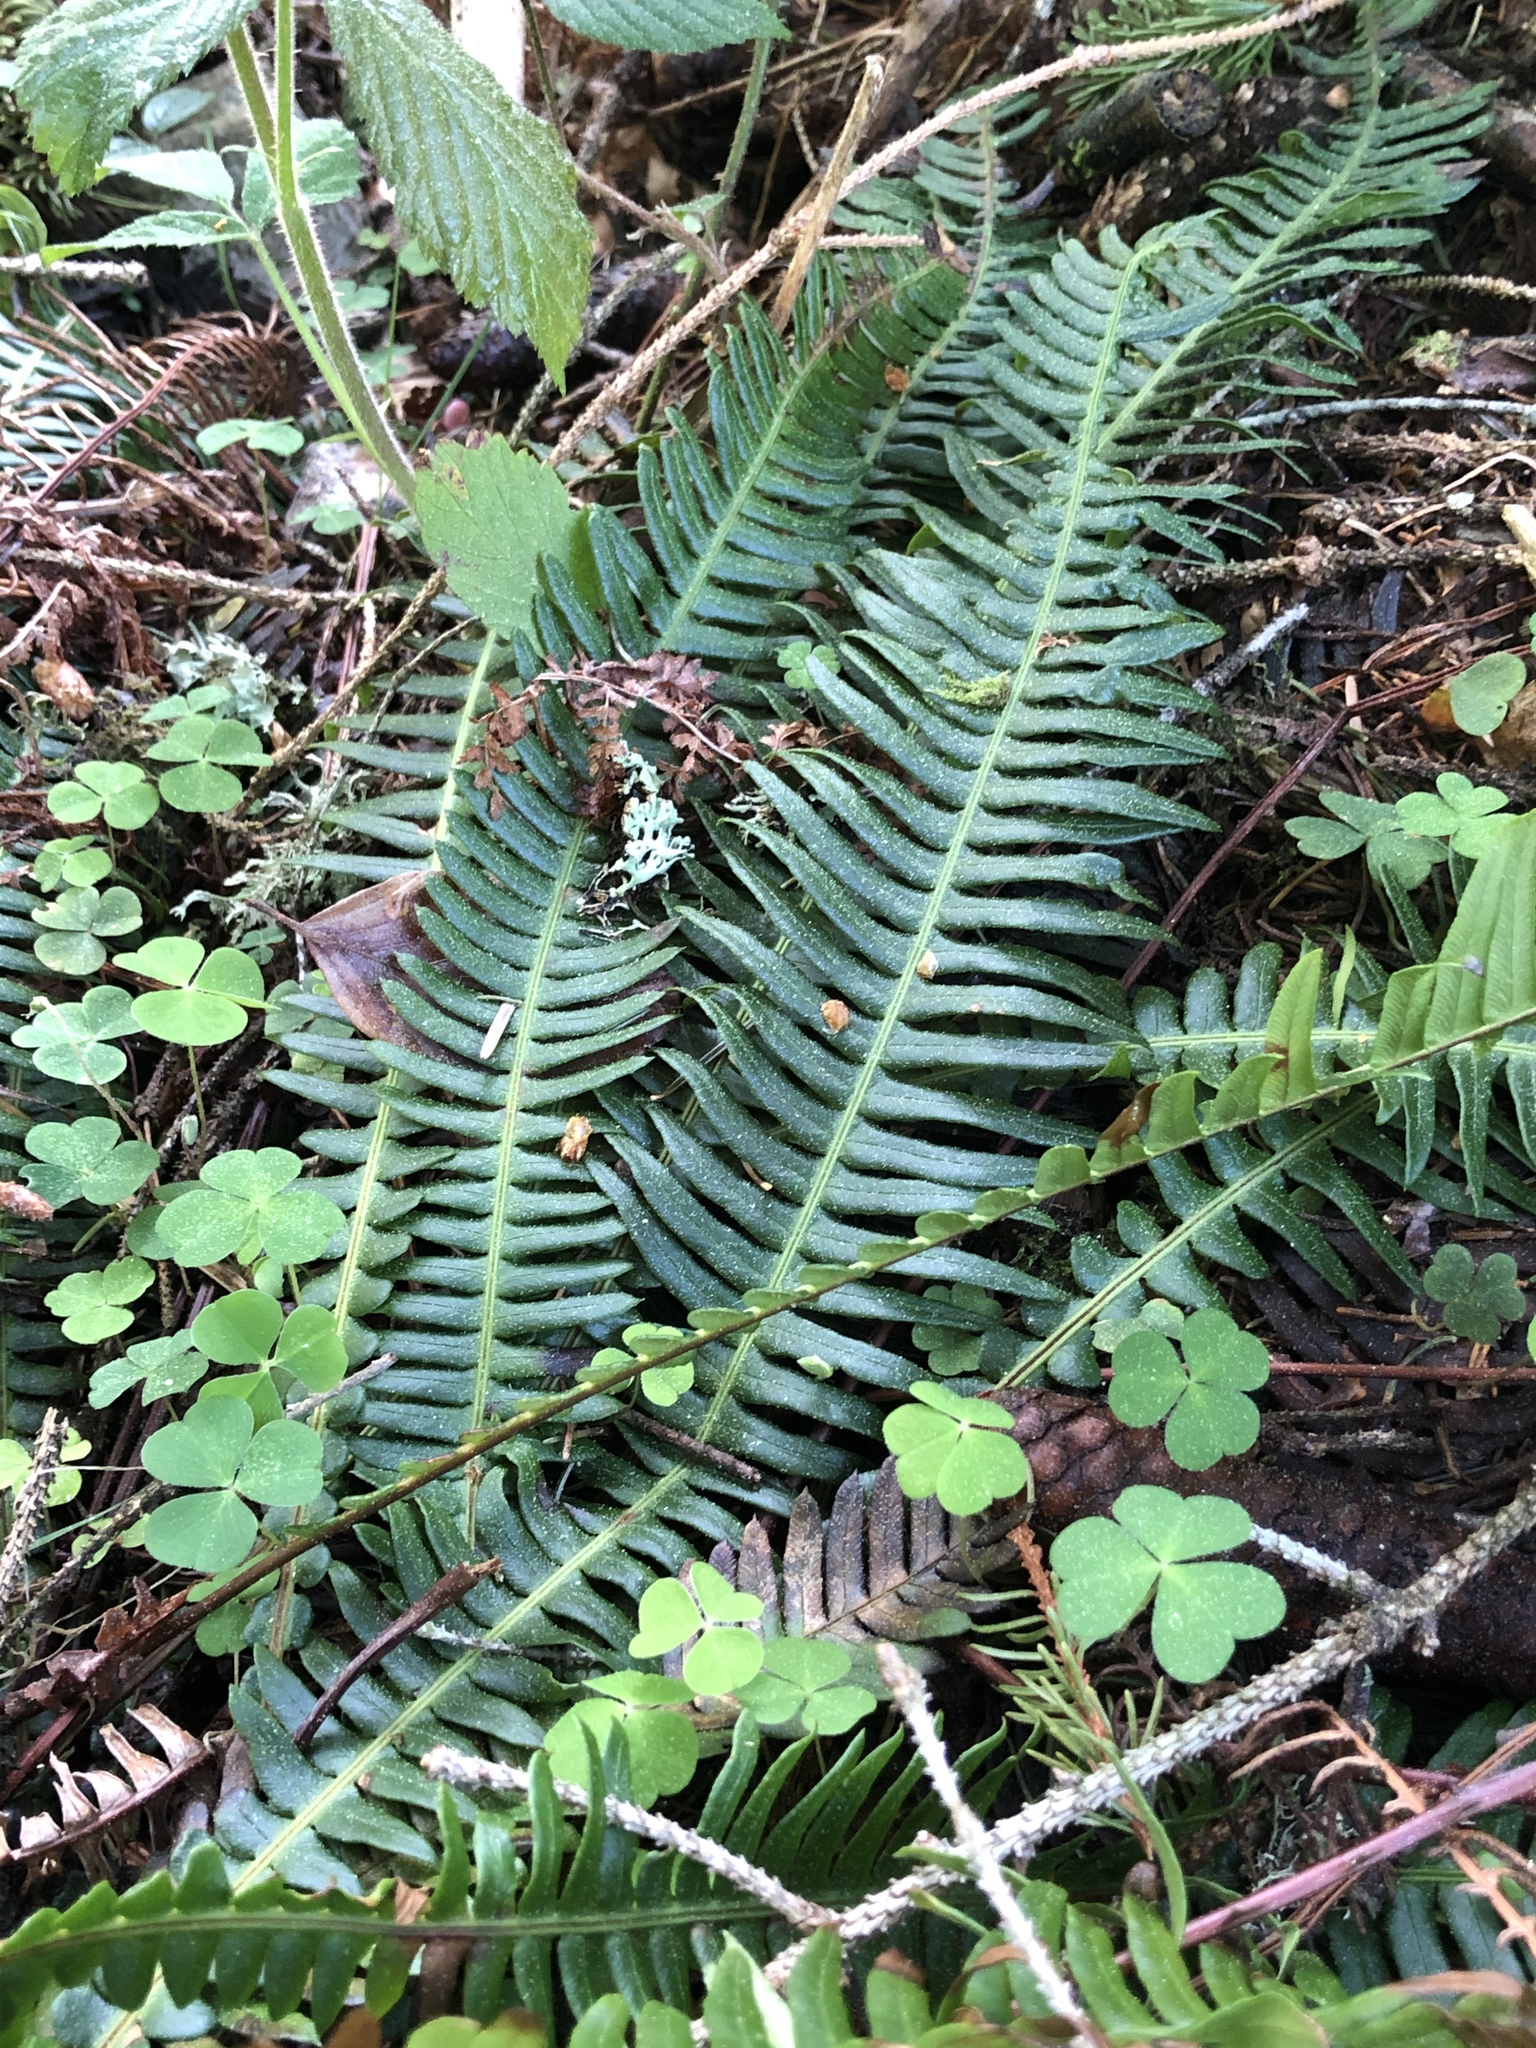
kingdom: Plantae
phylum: Tracheophyta
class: Polypodiopsida
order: Polypodiales
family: Blechnaceae
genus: Struthiopteris
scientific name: Struthiopteris spicant
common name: Deer fern
